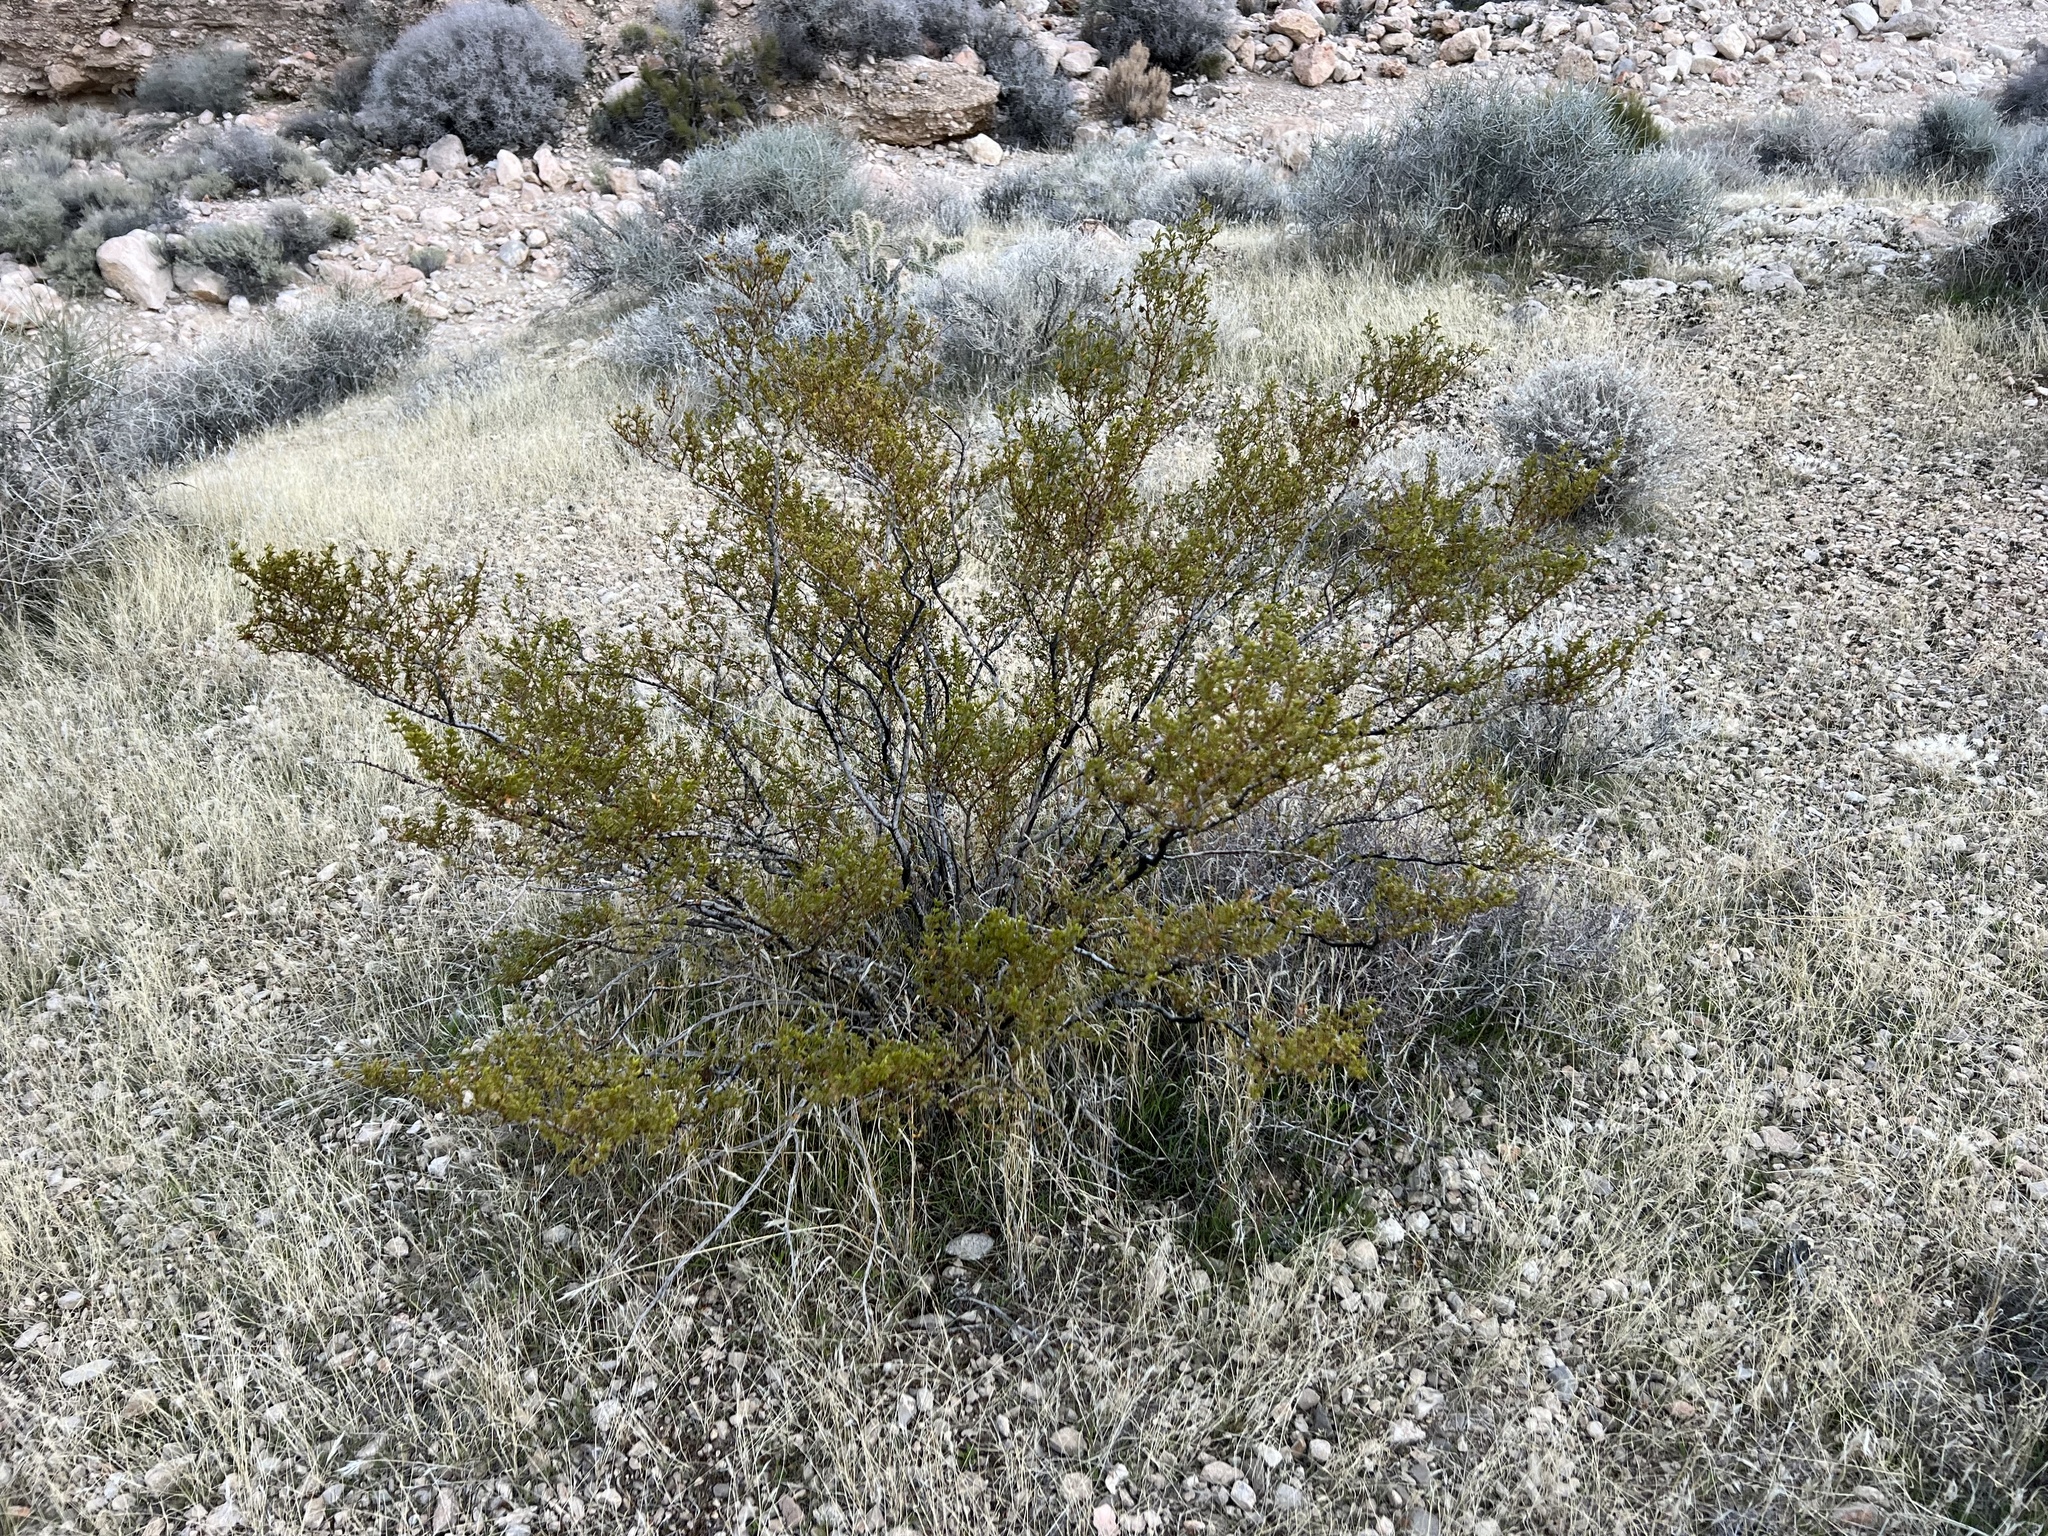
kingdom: Plantae
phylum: Tracheophyta
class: Magnoliopsida
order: Zygophyllales
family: Zygophyllaceae
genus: Larrea
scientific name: Larrea tridentata
